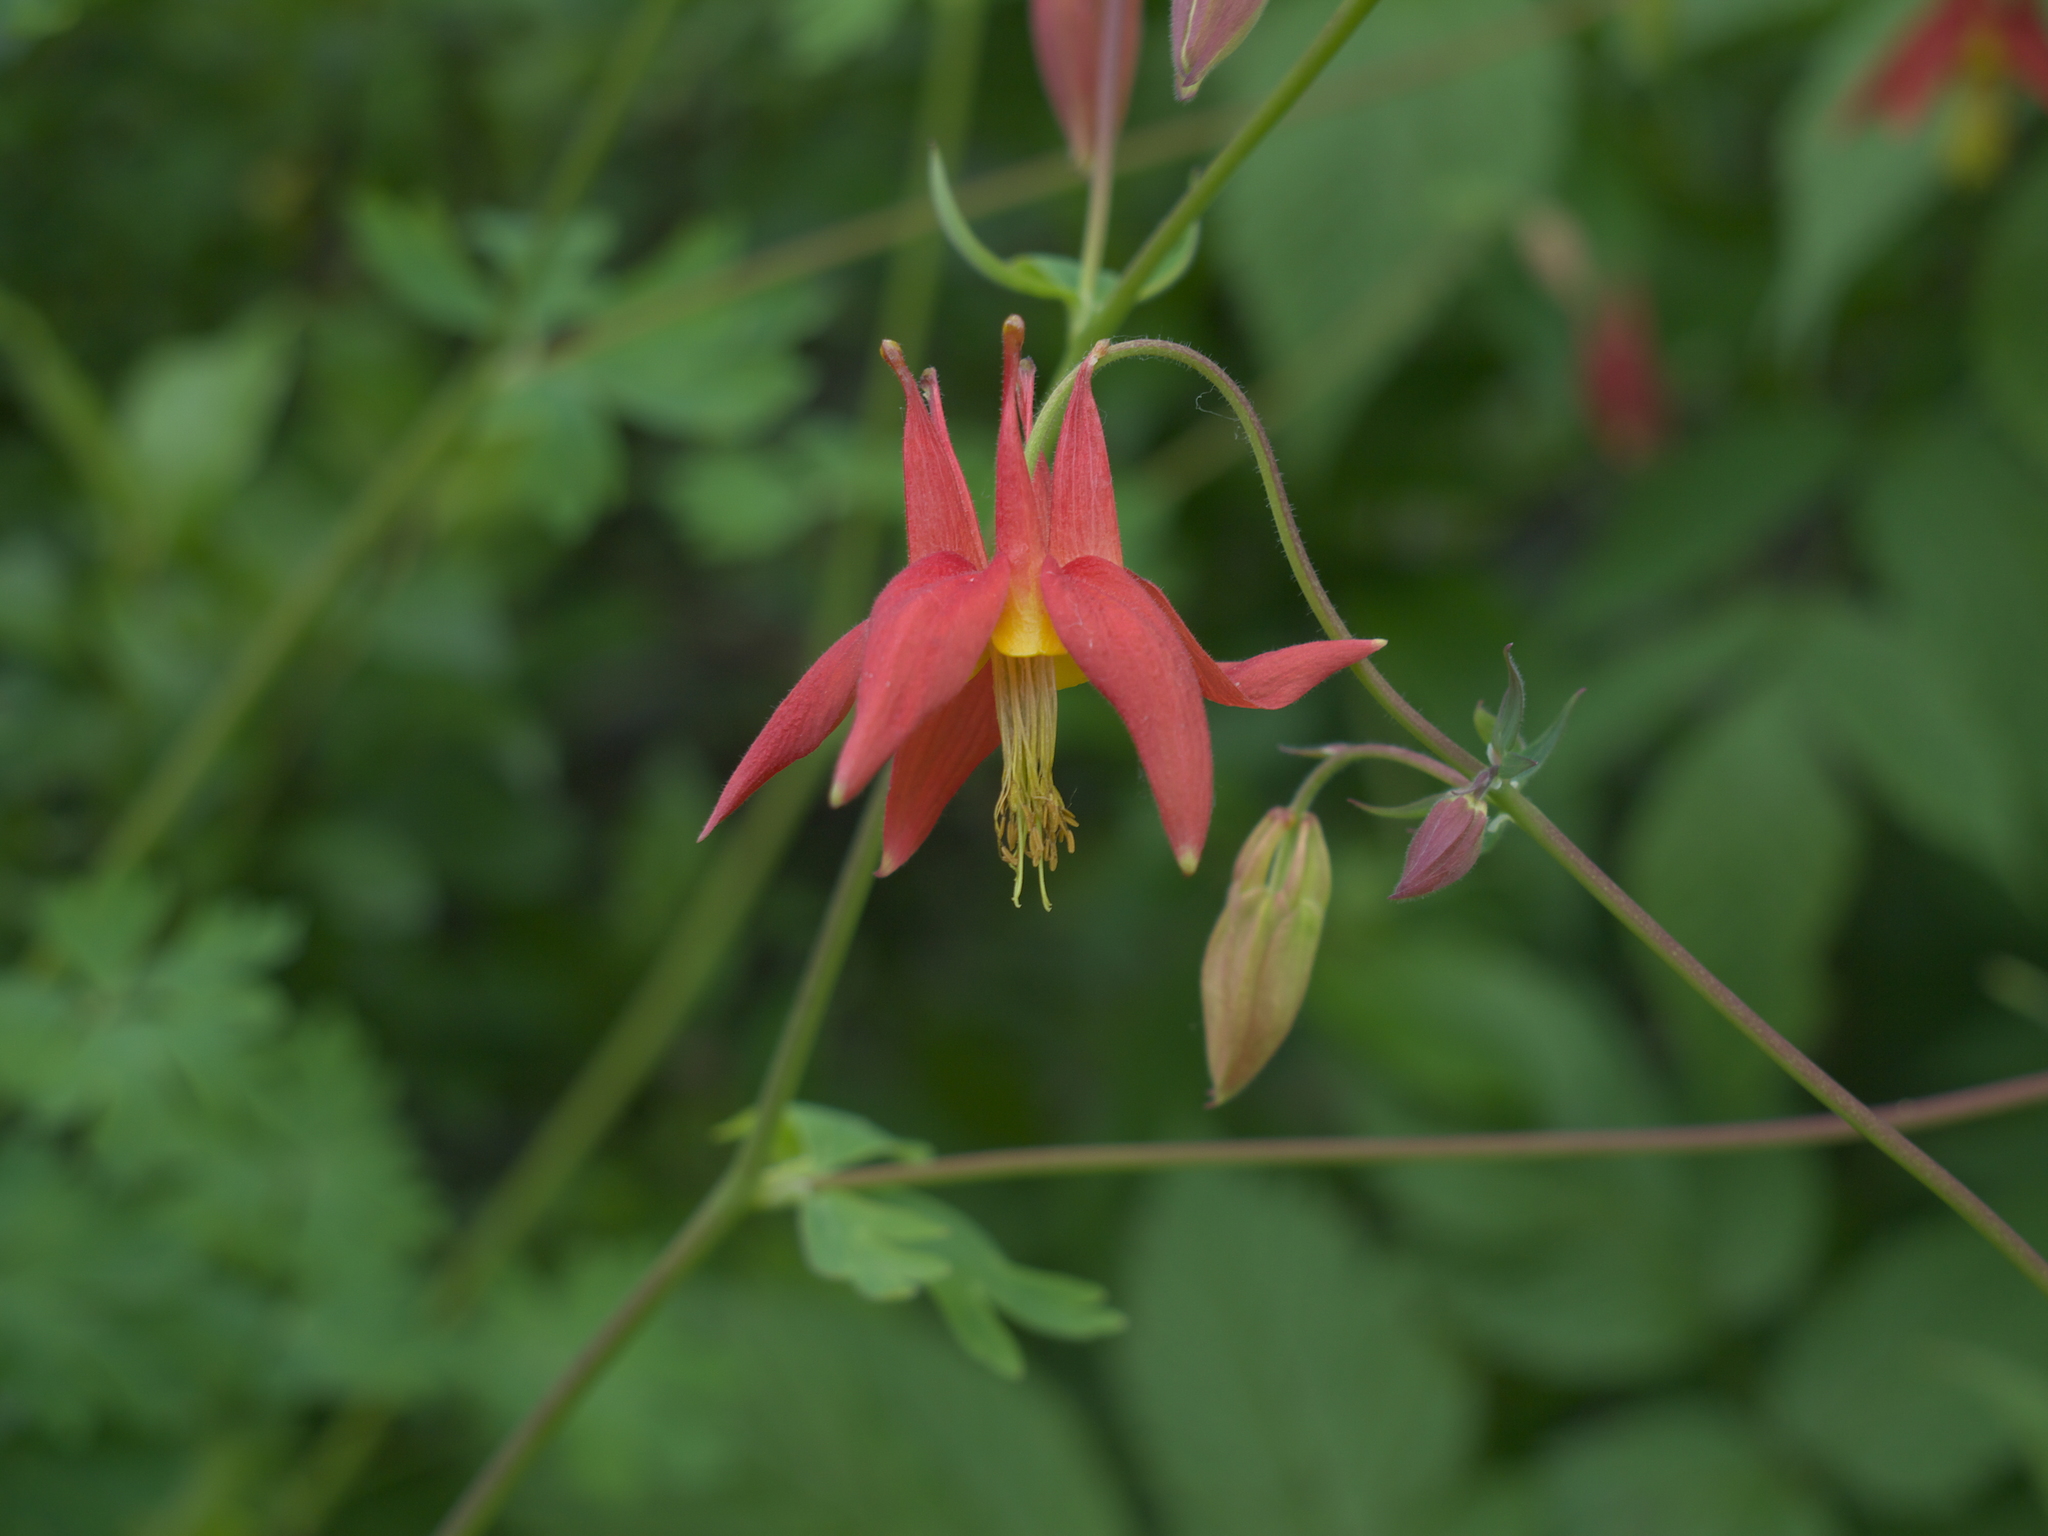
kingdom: Plantae
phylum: Tracheophyta
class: Magnoliopsida
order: Ranunculales
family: Ranunculaceae
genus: Aquilegia
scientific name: Aquilegia formosa
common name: Sitka columbine
